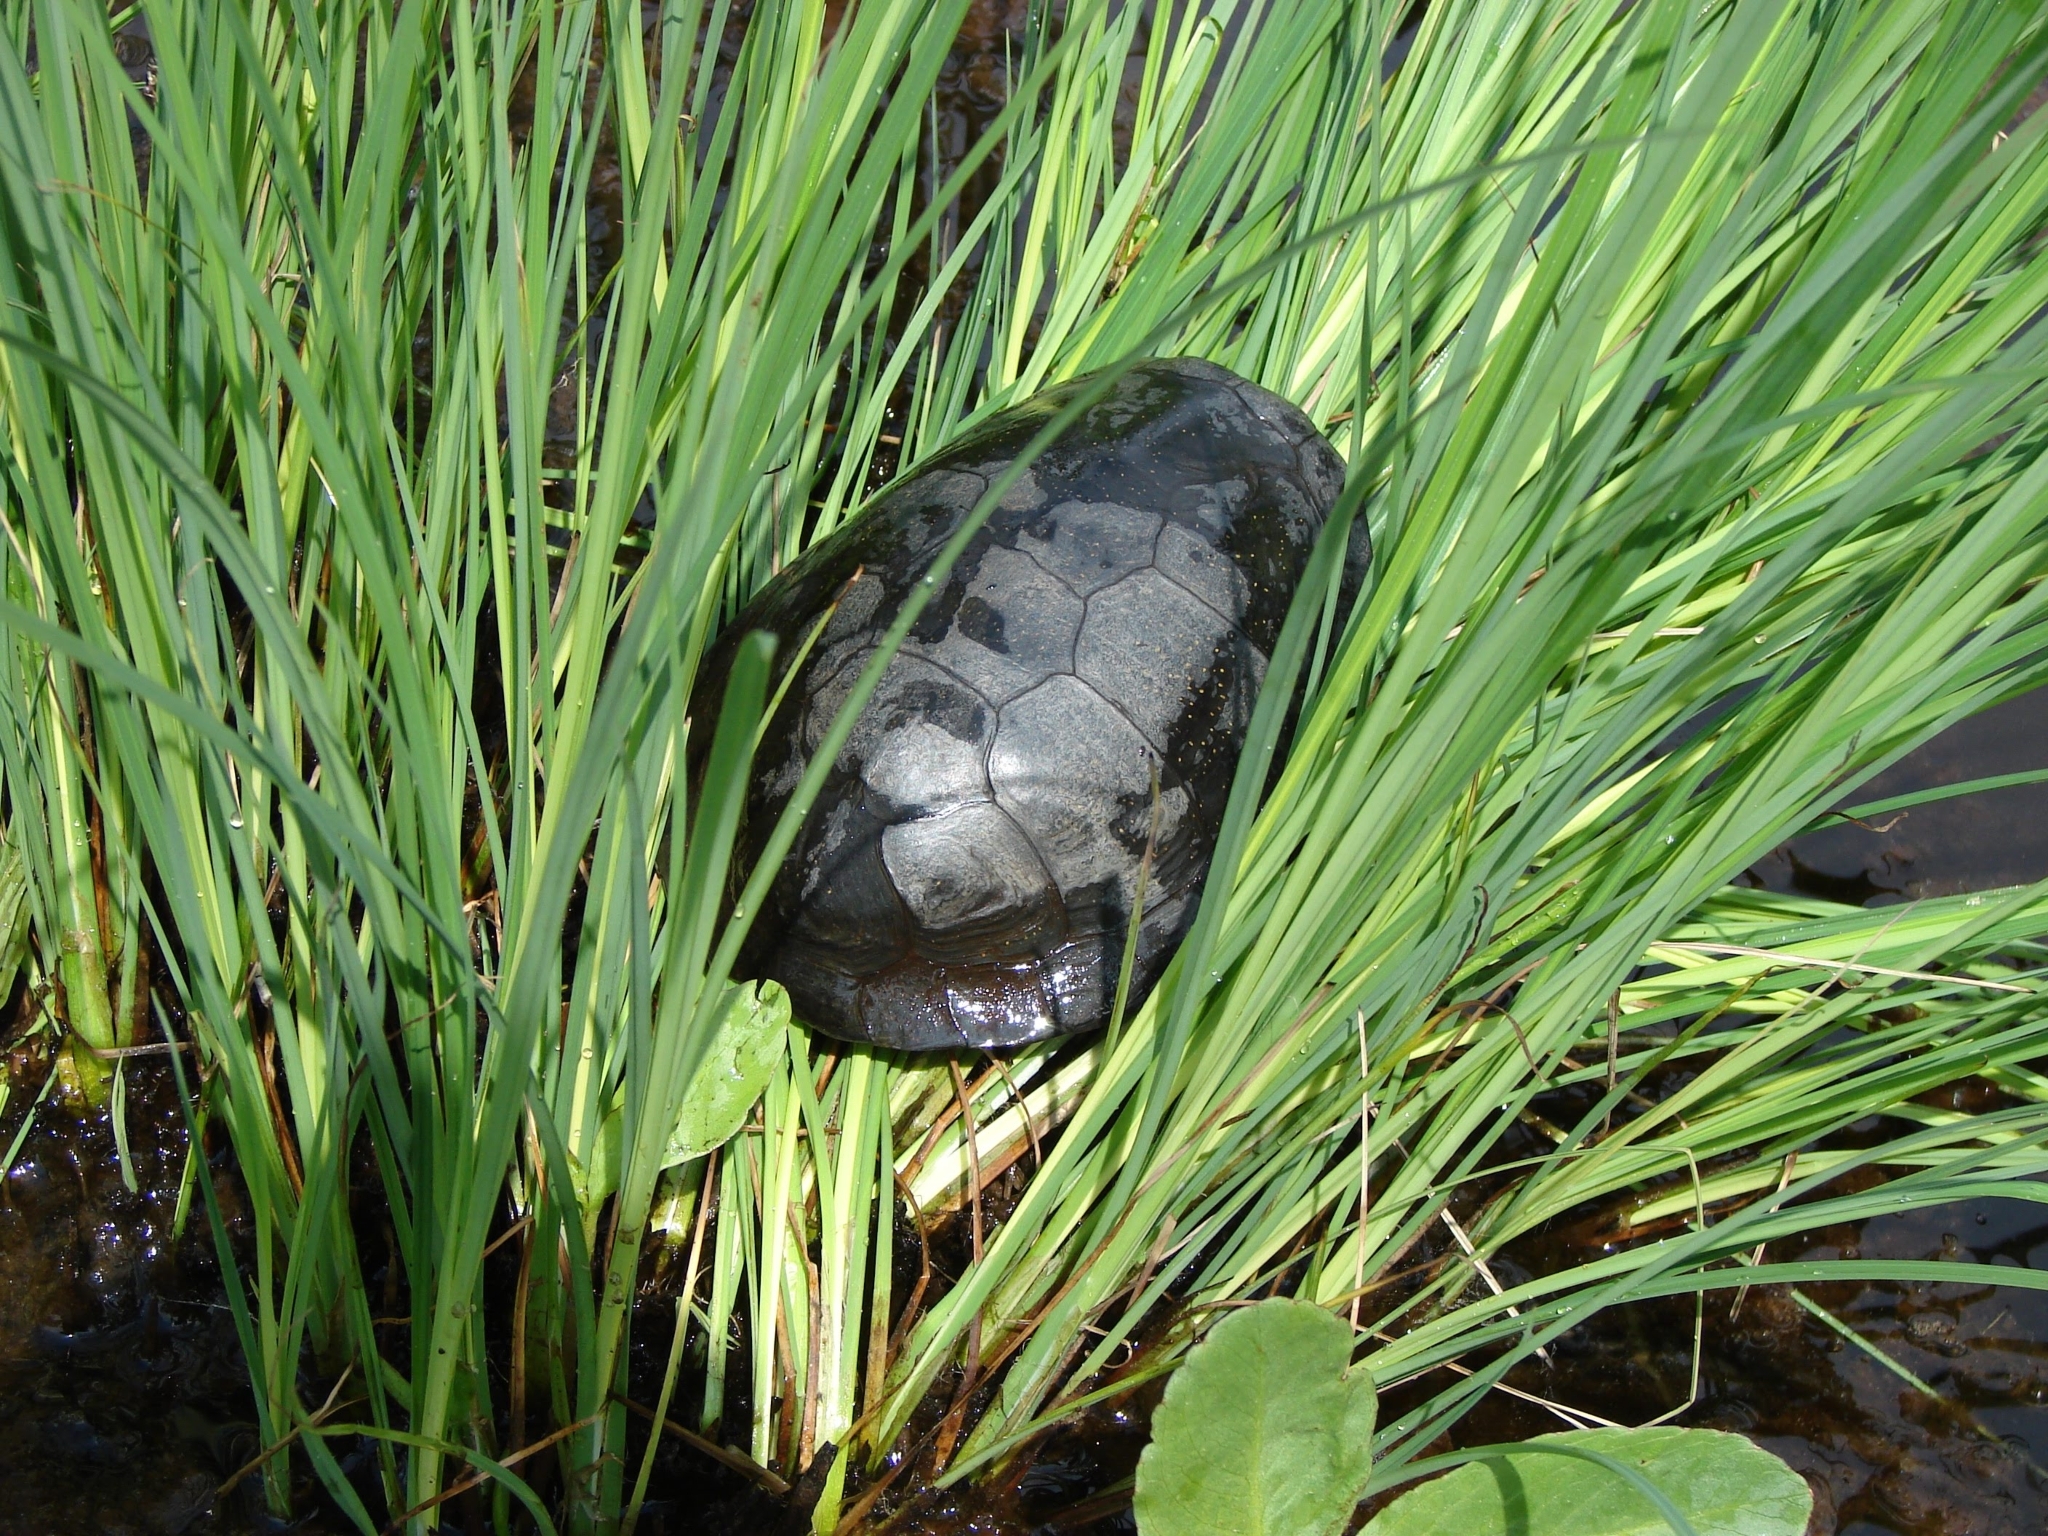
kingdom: Animalia
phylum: Chordata
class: Testudines
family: Emydidae
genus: Emys
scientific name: Emys orbicularis
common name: European pond turtle
